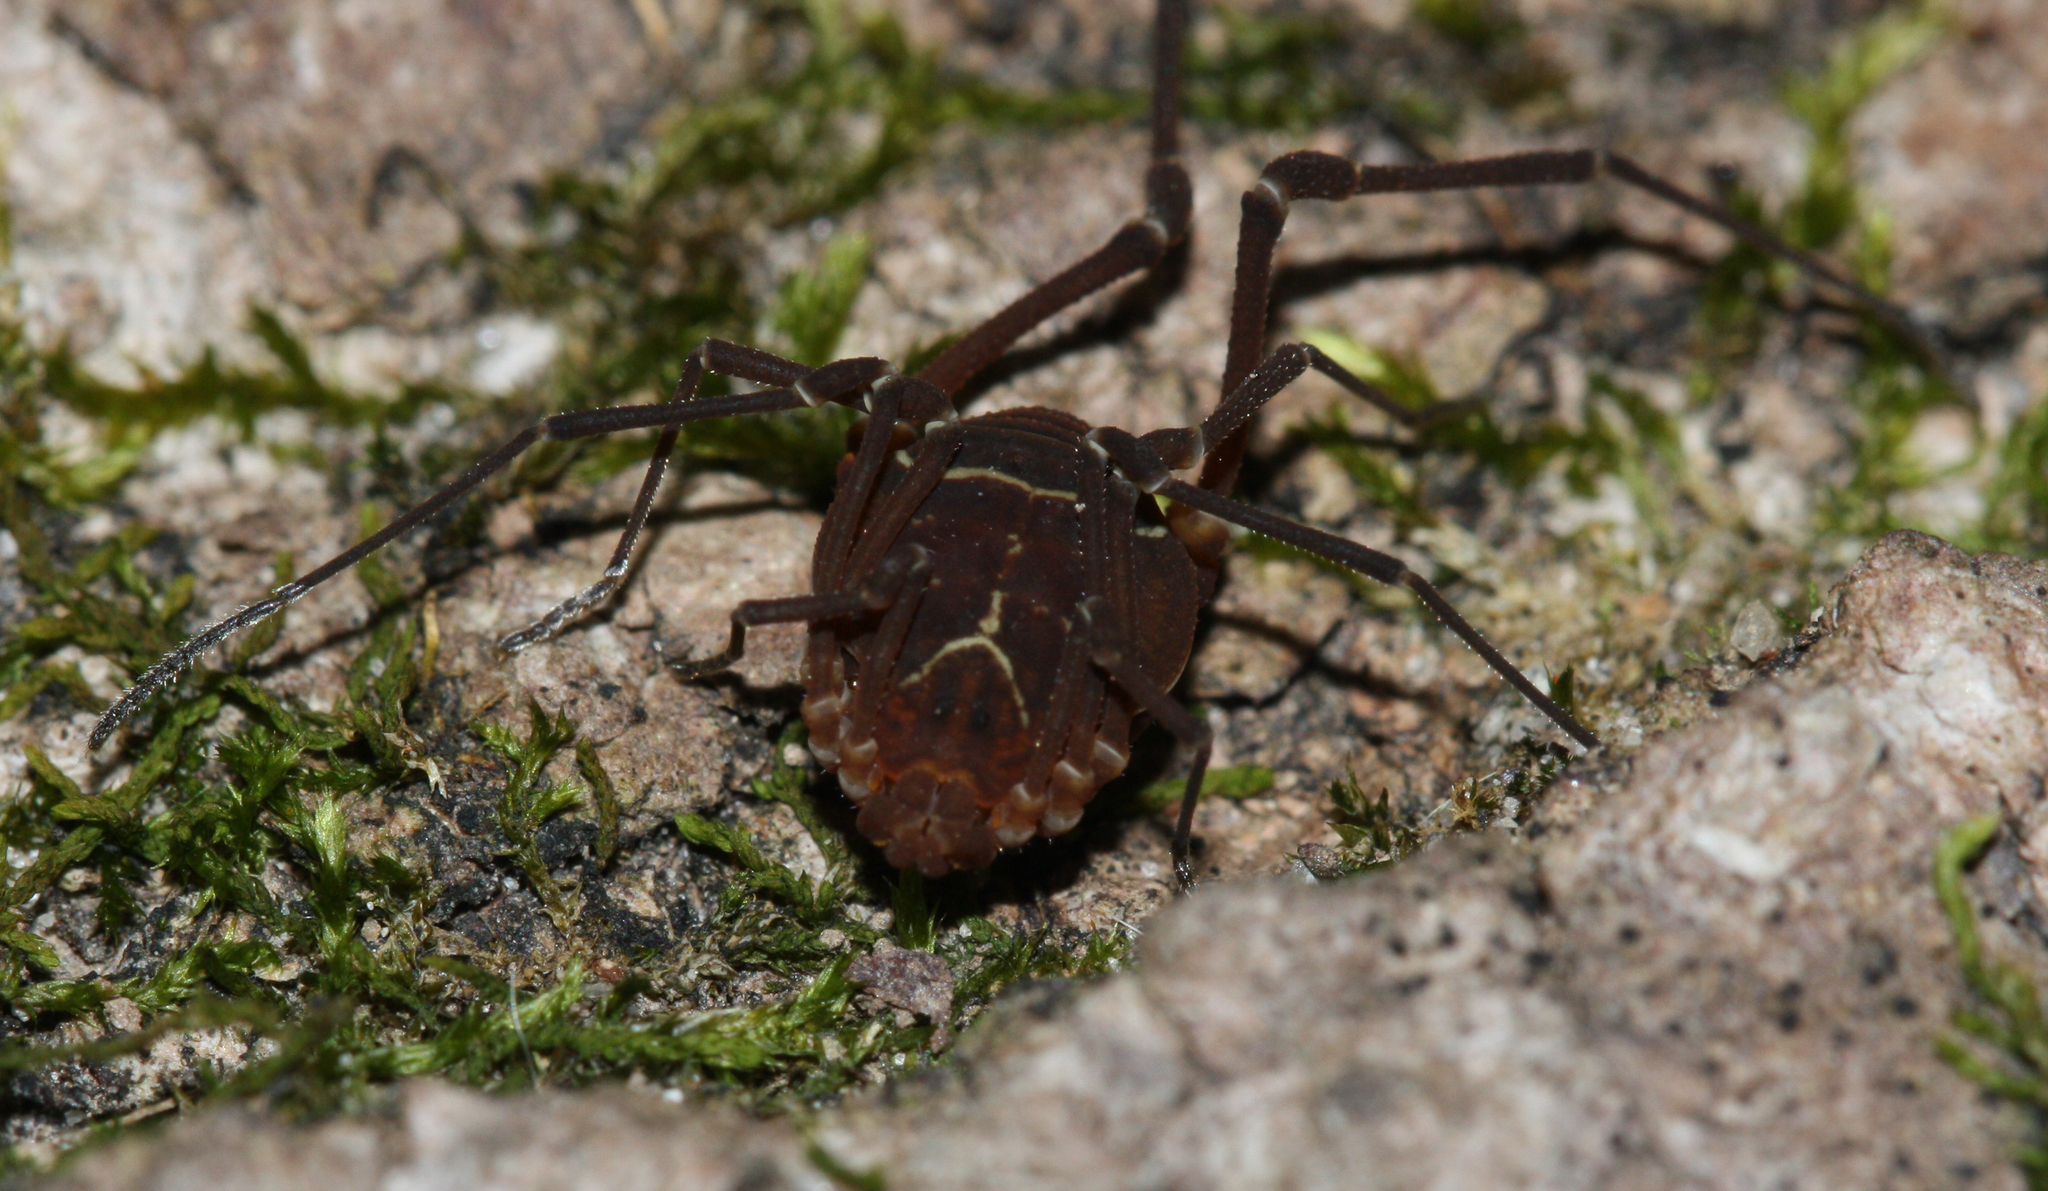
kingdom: Animalia
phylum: Arthropoda
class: Arachnida
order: Opiliones
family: Cosmetidae
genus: Libitioides
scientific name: Libitioides sayi
